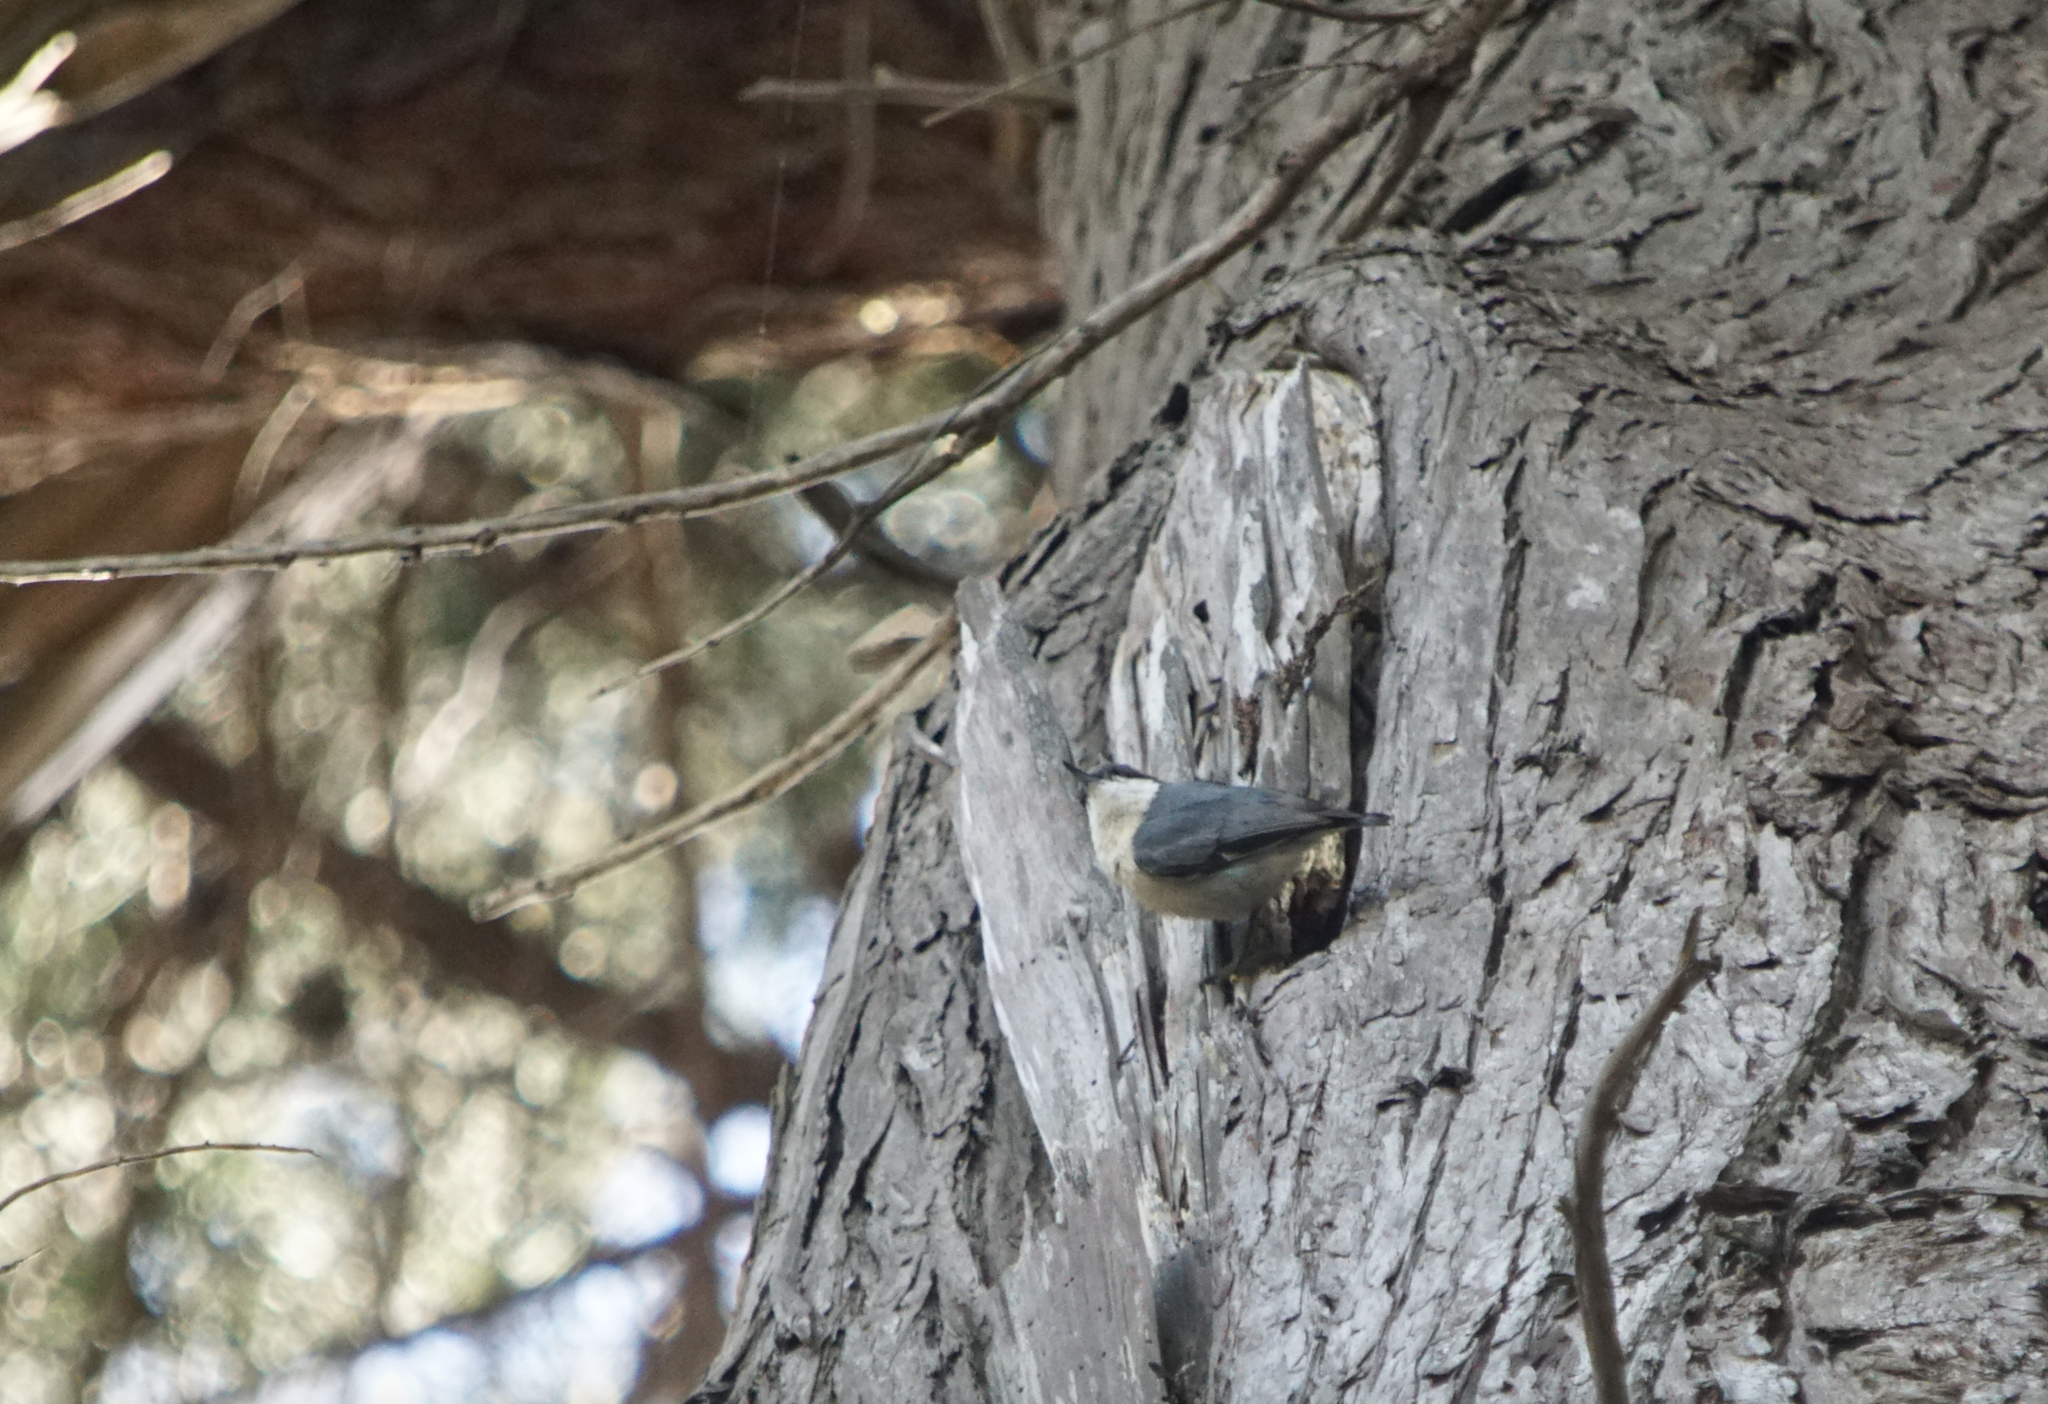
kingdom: Animalia
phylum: Chordata
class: Aves
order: Passeriformes
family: Sittidae
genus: Sitta
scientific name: Sitta pygmaea
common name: Pygmy nuthatch
